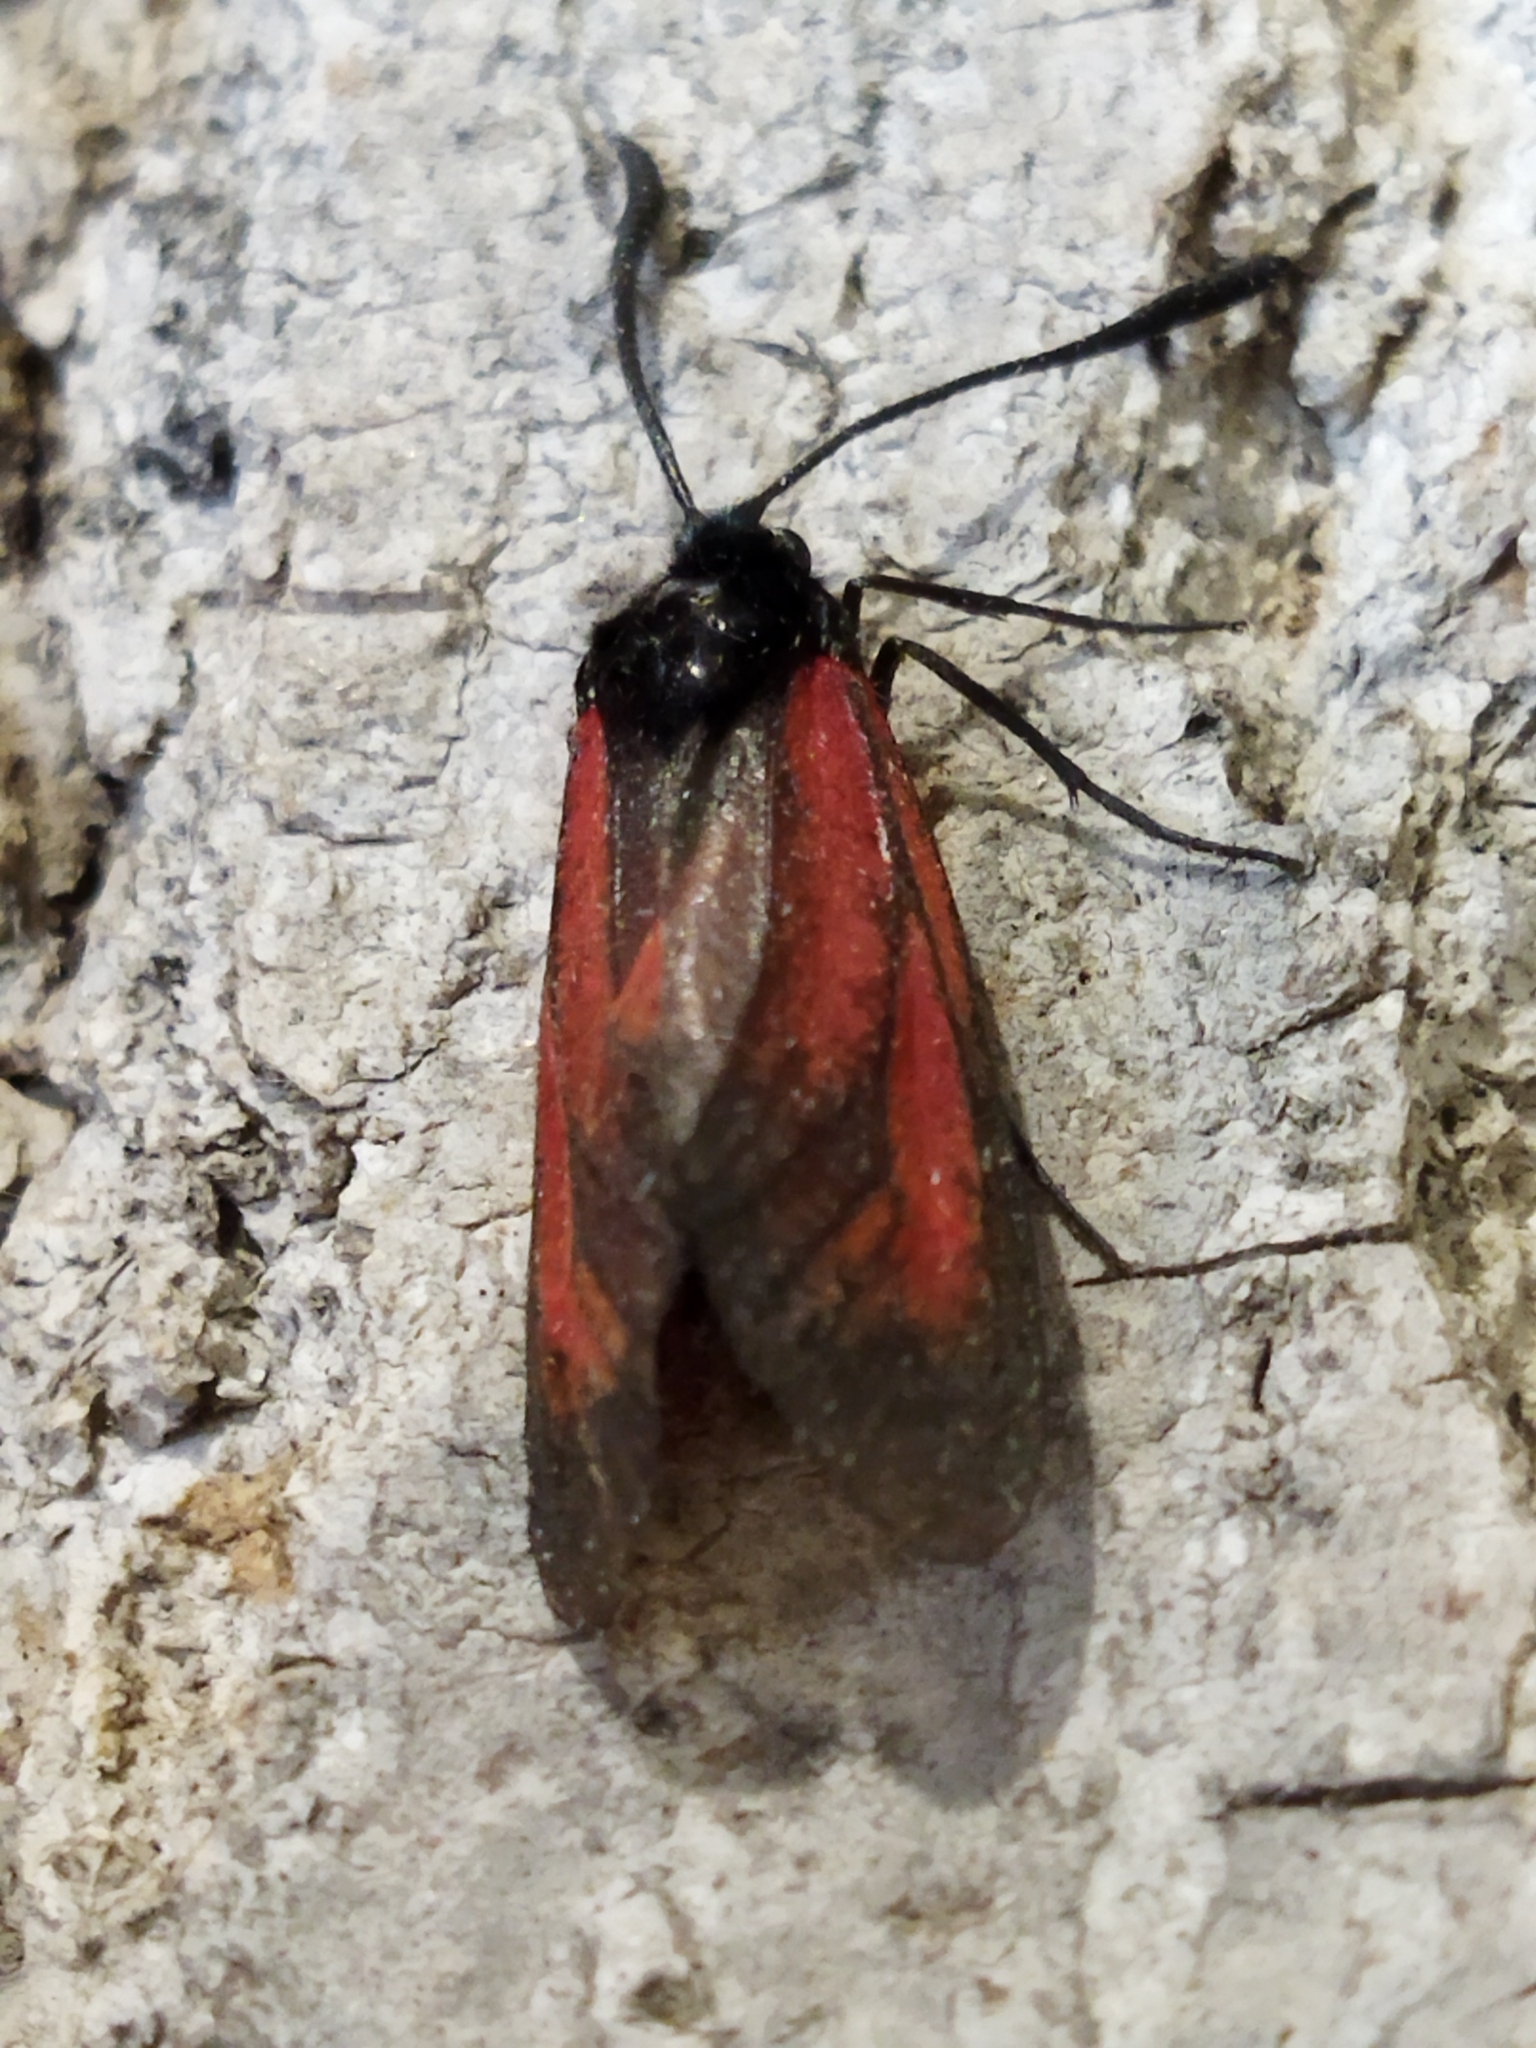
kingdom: Animalia
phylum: Arthropoda
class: Insecta
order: Lepidoptera
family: Zygaenidae
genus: Zygaena
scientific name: Zygaena
